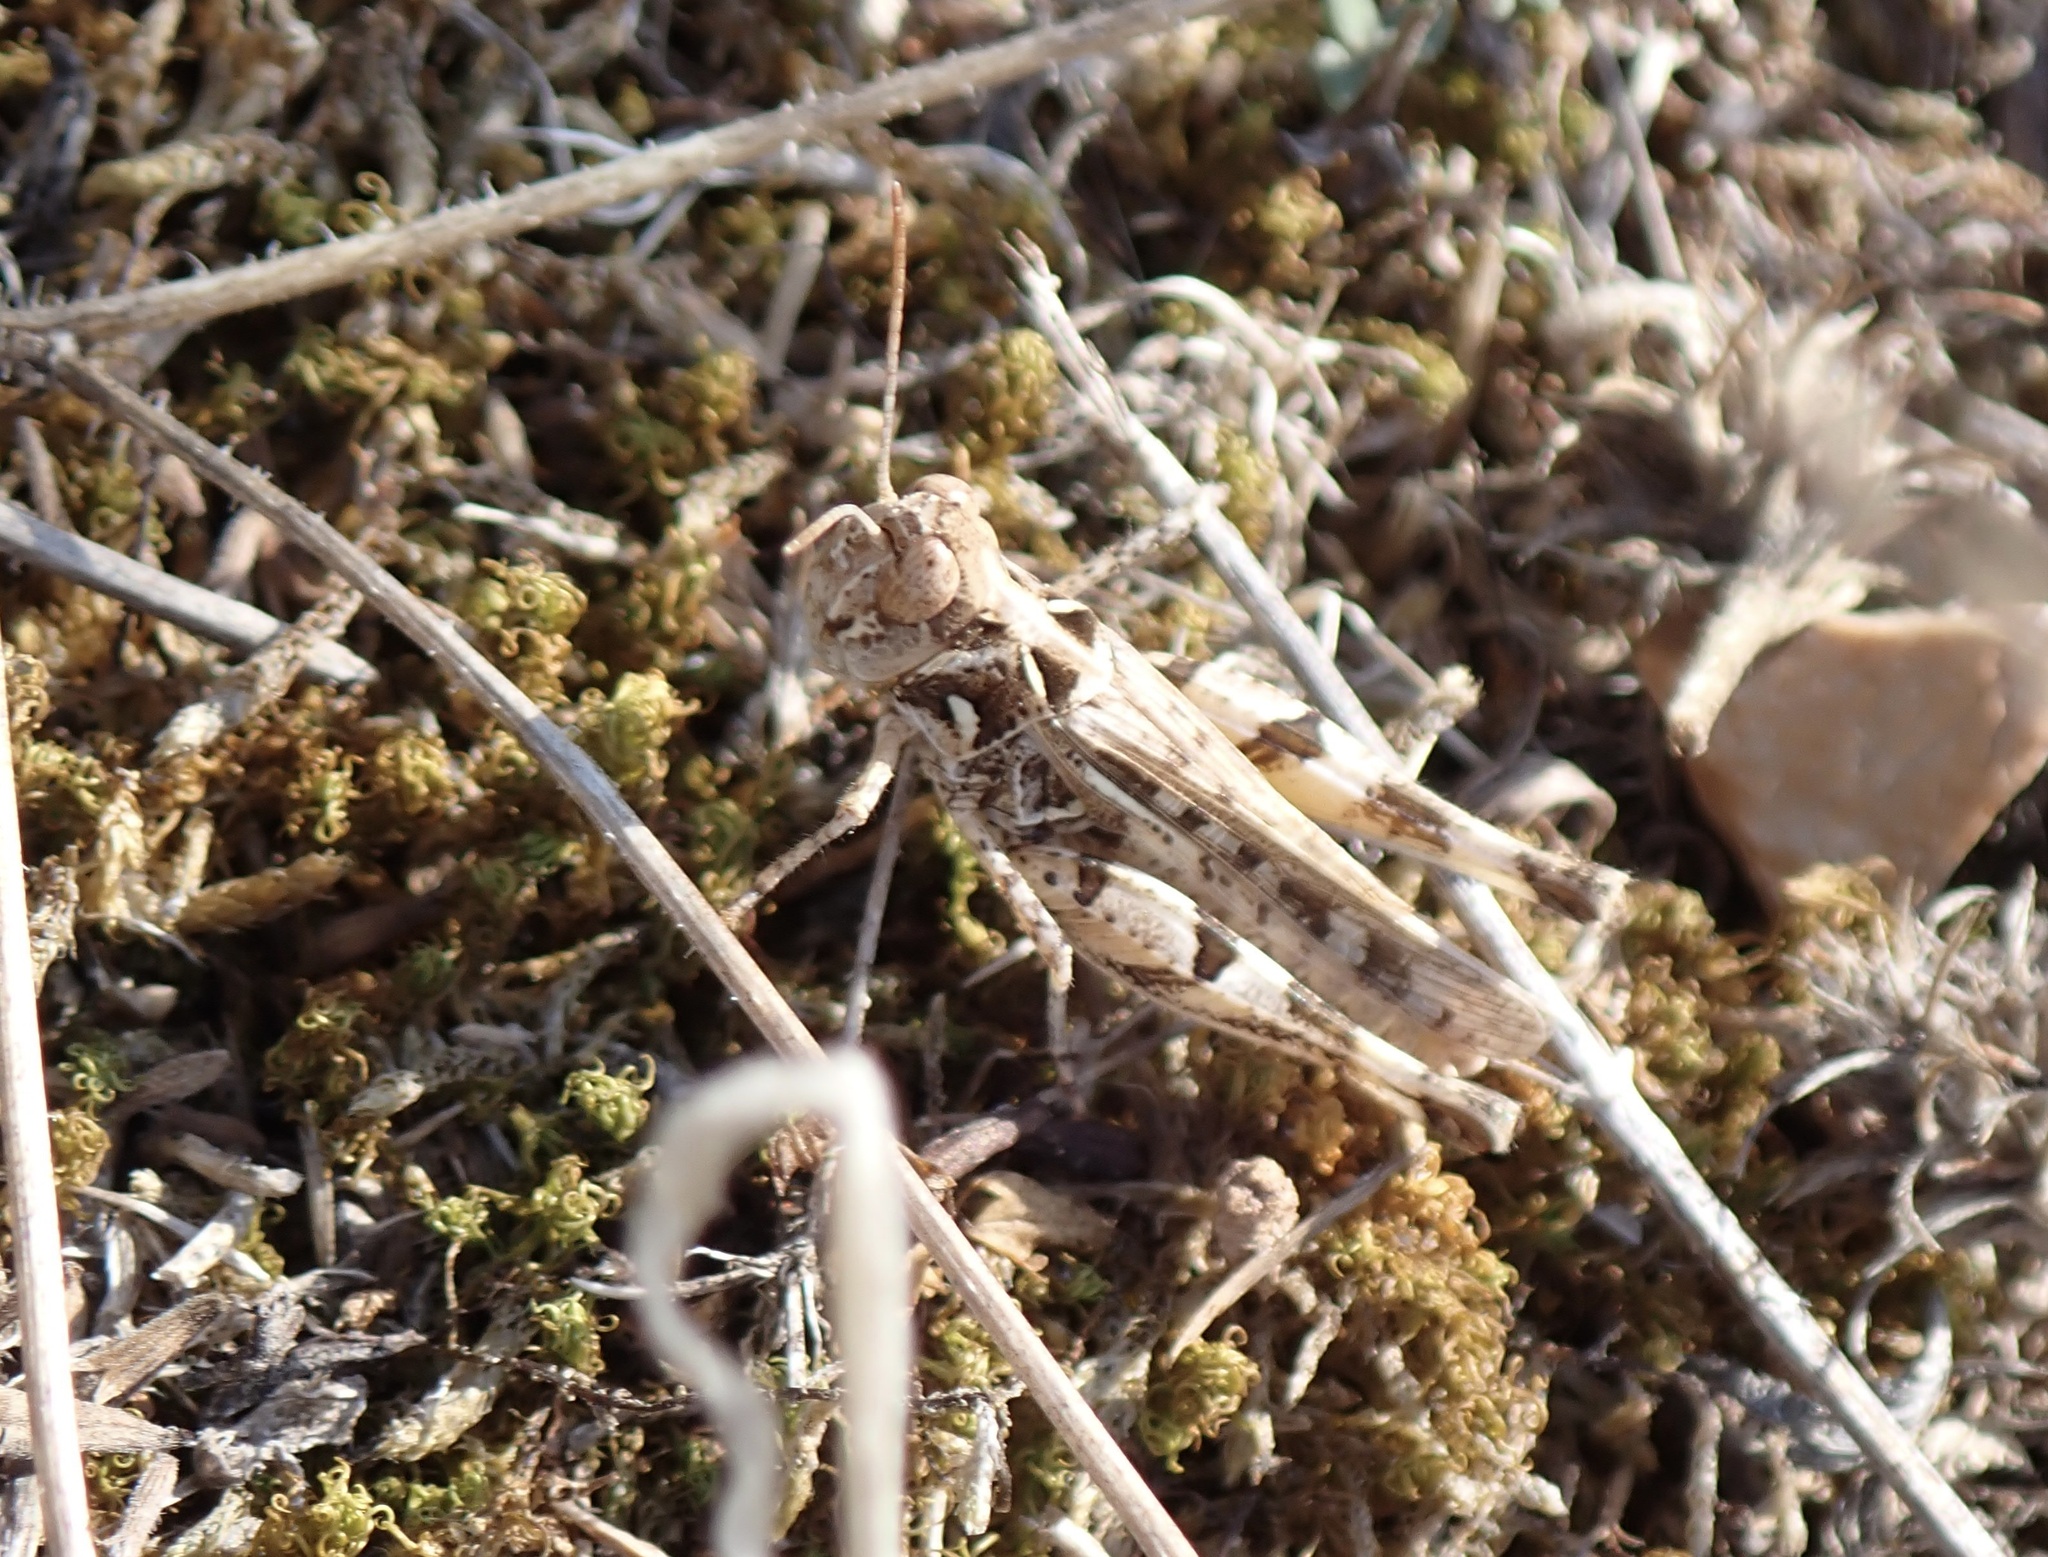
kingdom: Animalia
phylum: Arthropoda
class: Insecta
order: Orthoptera
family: Acrididae
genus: Dociostaurus
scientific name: Dociostaurus genei
